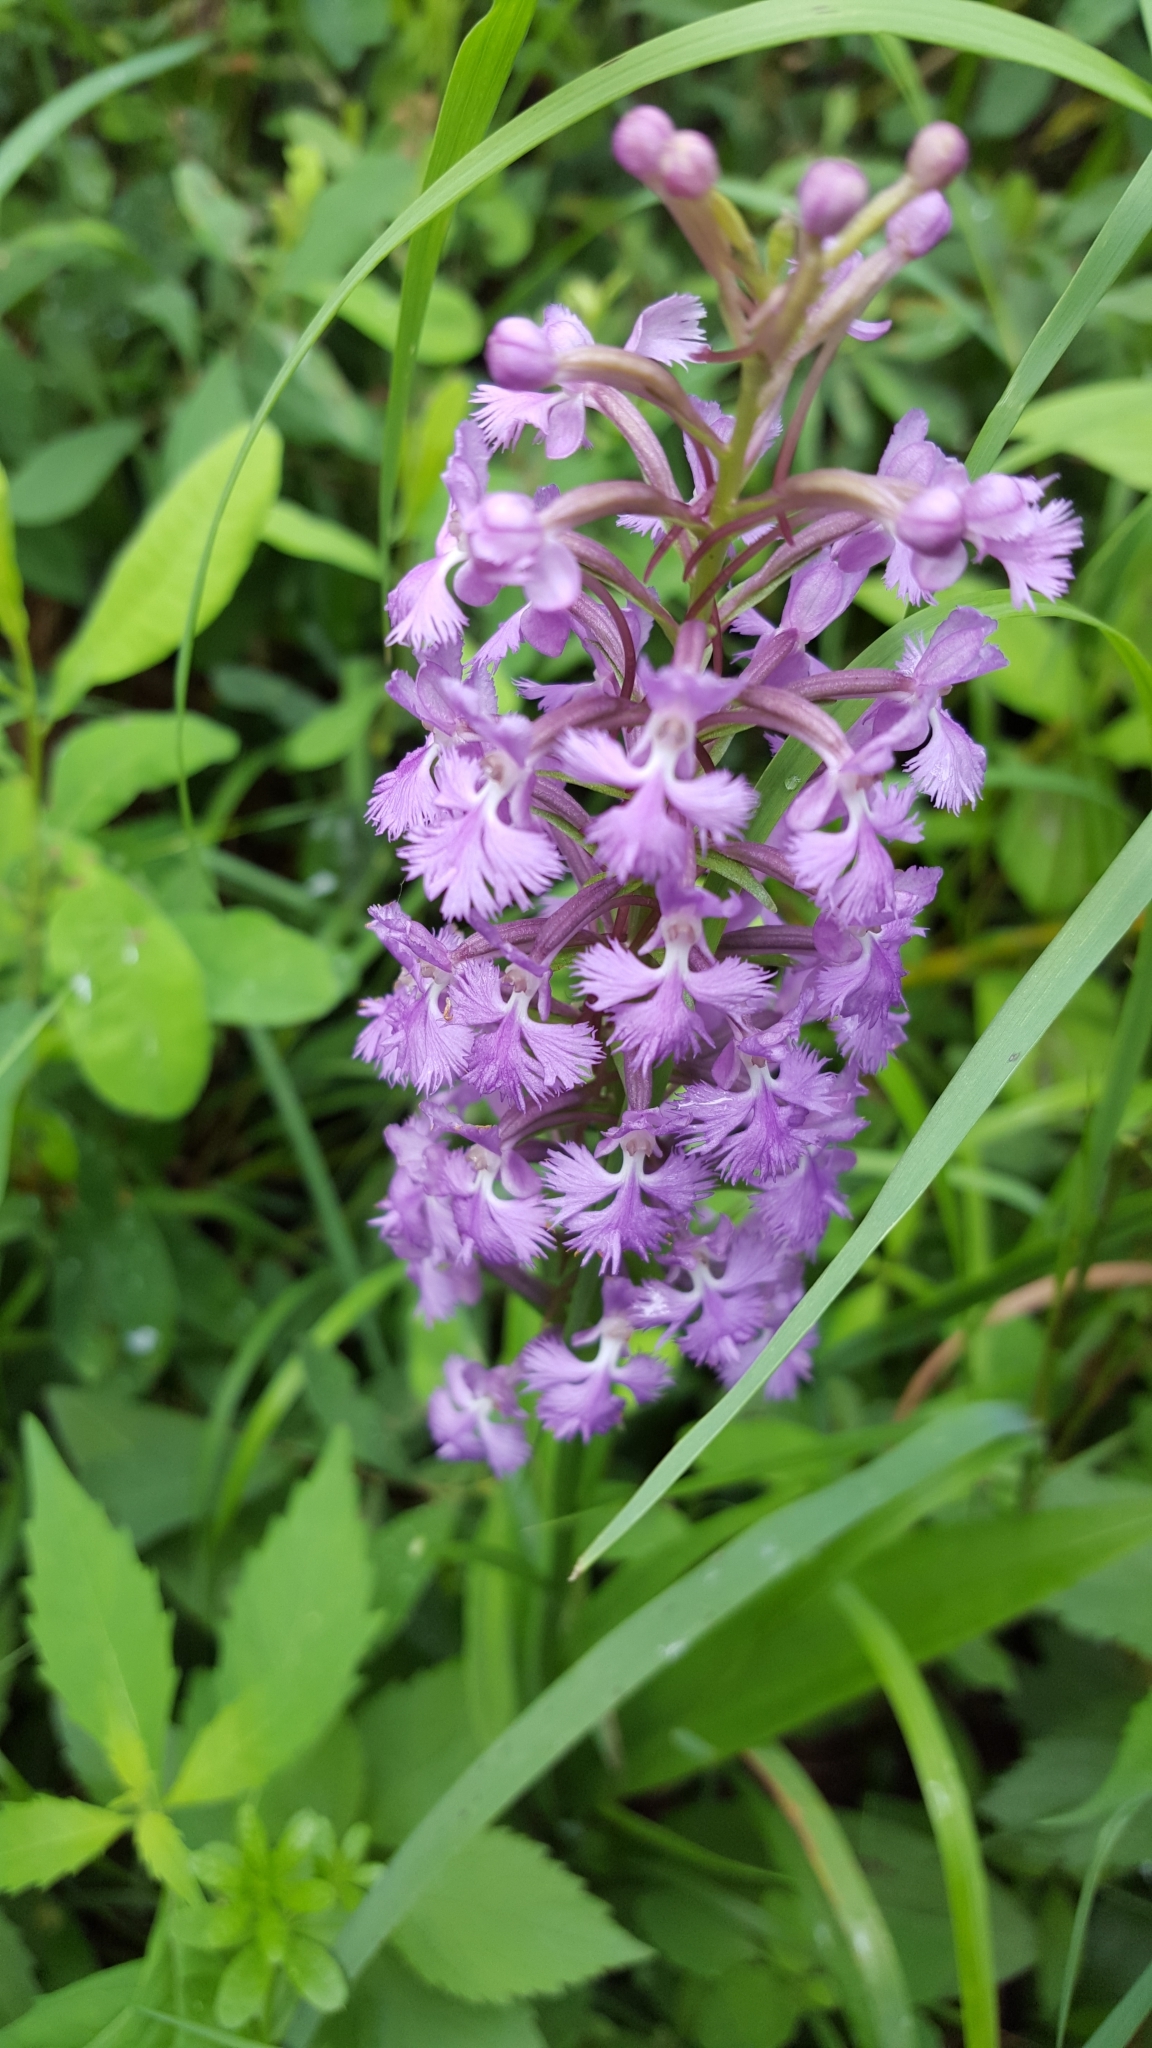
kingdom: Plantae
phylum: Tracheophyta
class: Liliopsida
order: Asparagales
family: Orchidaceae
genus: Platanthera
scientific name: Platanthera psycodes
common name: Lesser purple fringed orchid
